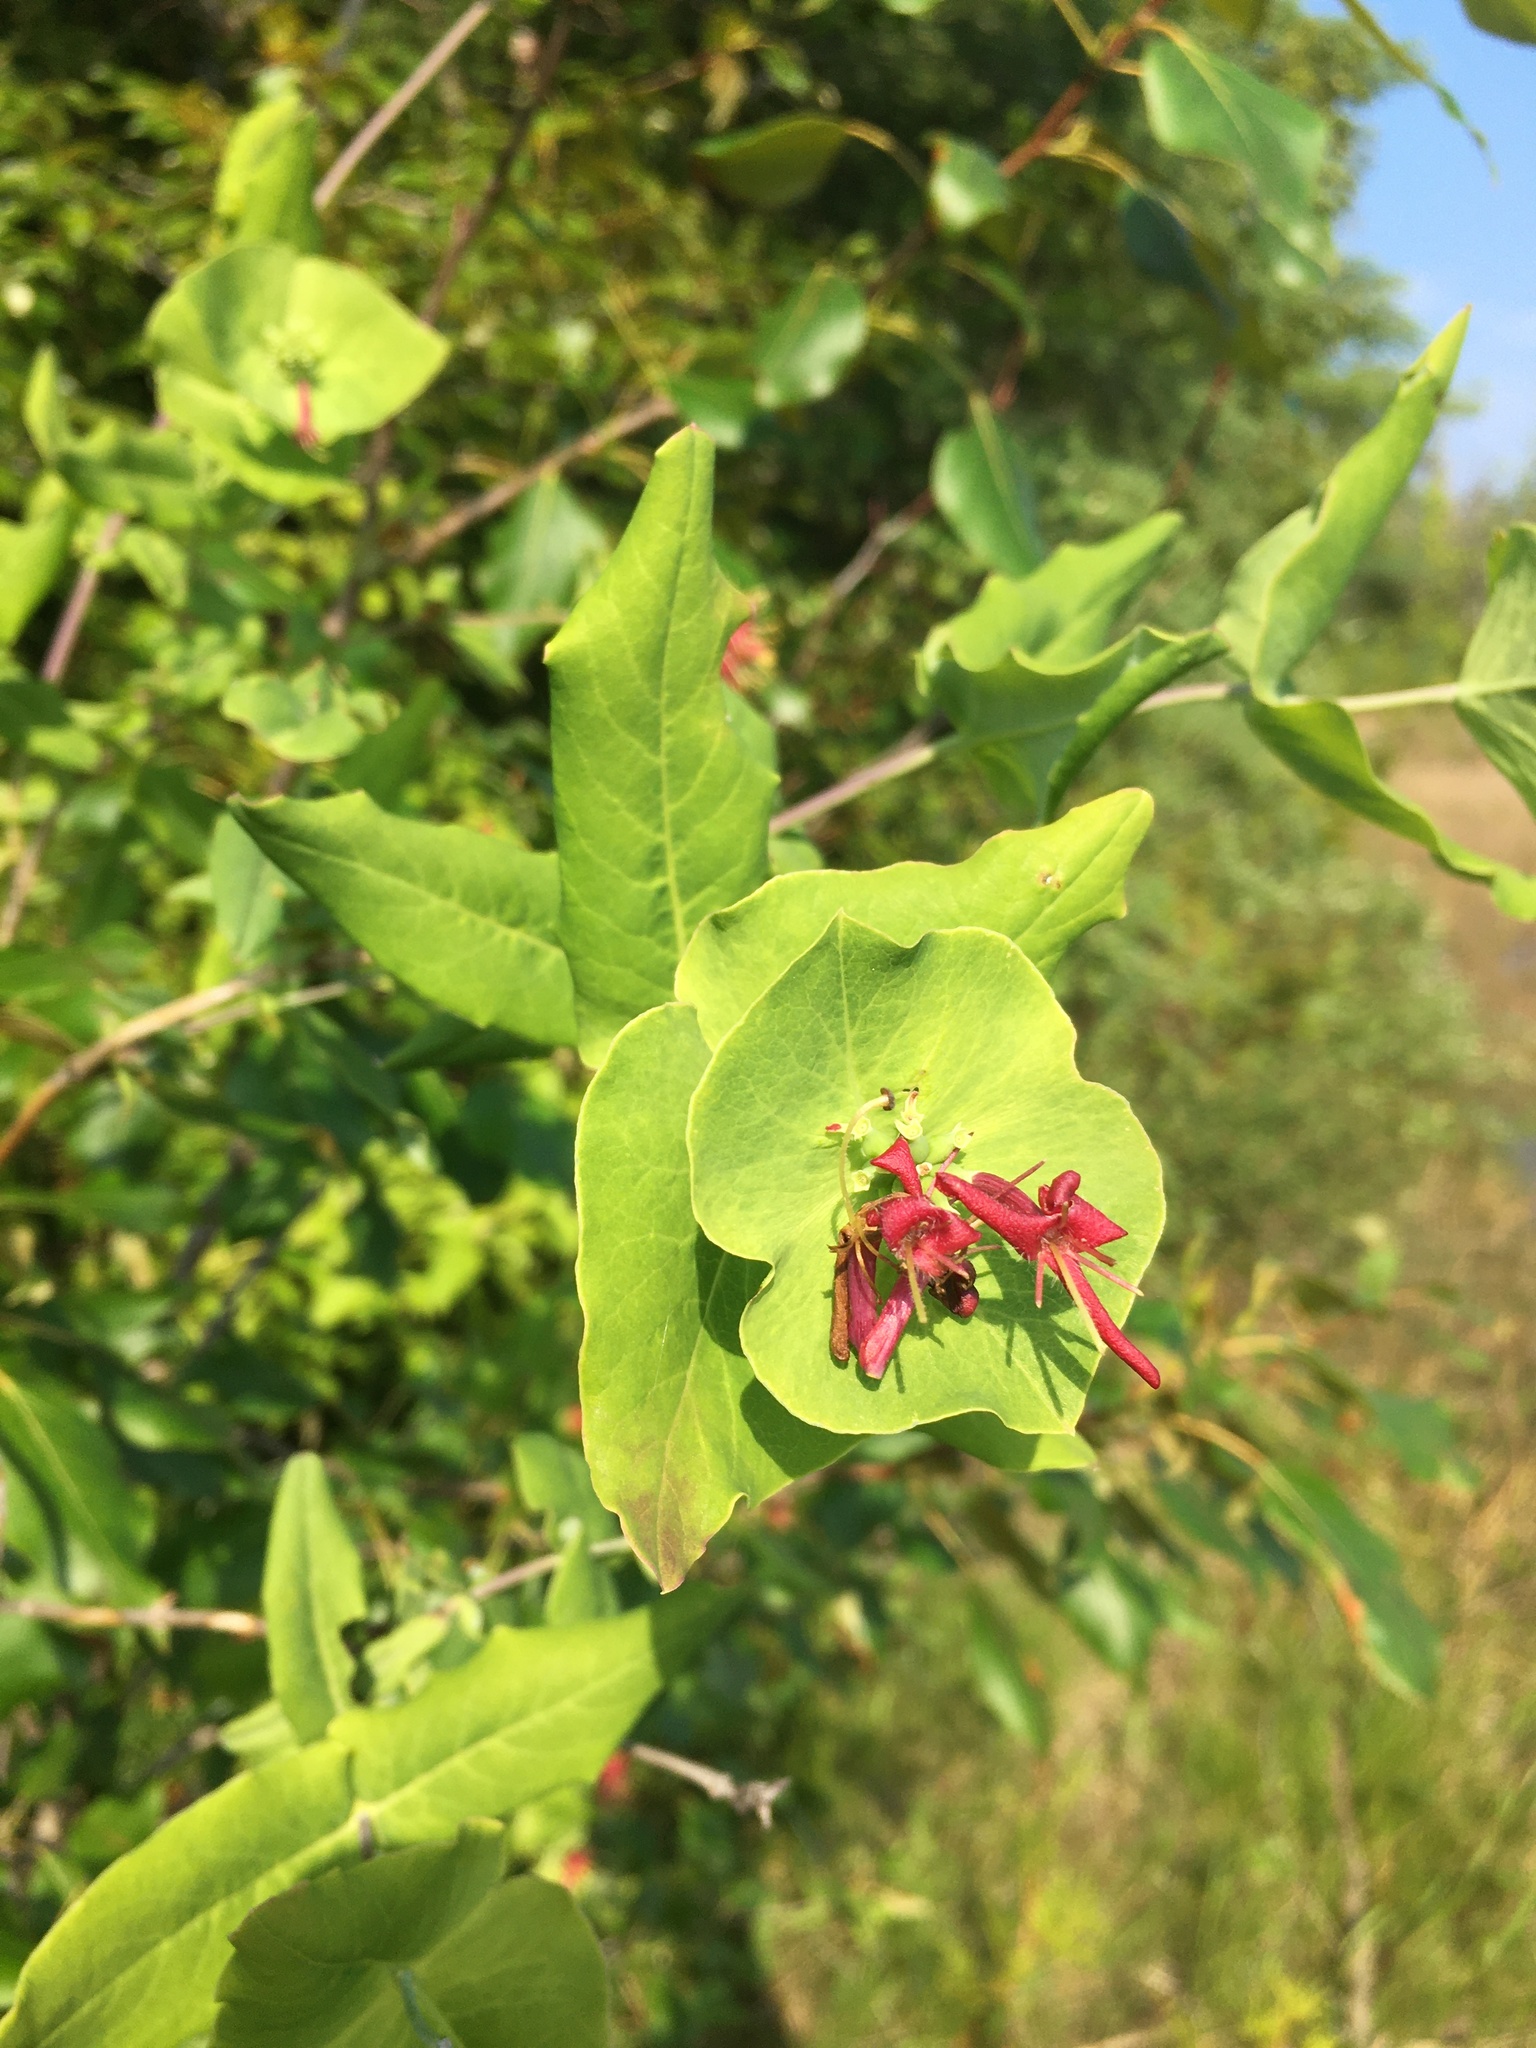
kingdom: Plantae
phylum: Tracheophyta
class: Magnoliopsida
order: Dipsacales
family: Caprifoliaceae
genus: Lonicera
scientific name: Lonicera dioica
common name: Limber honeysuckle
